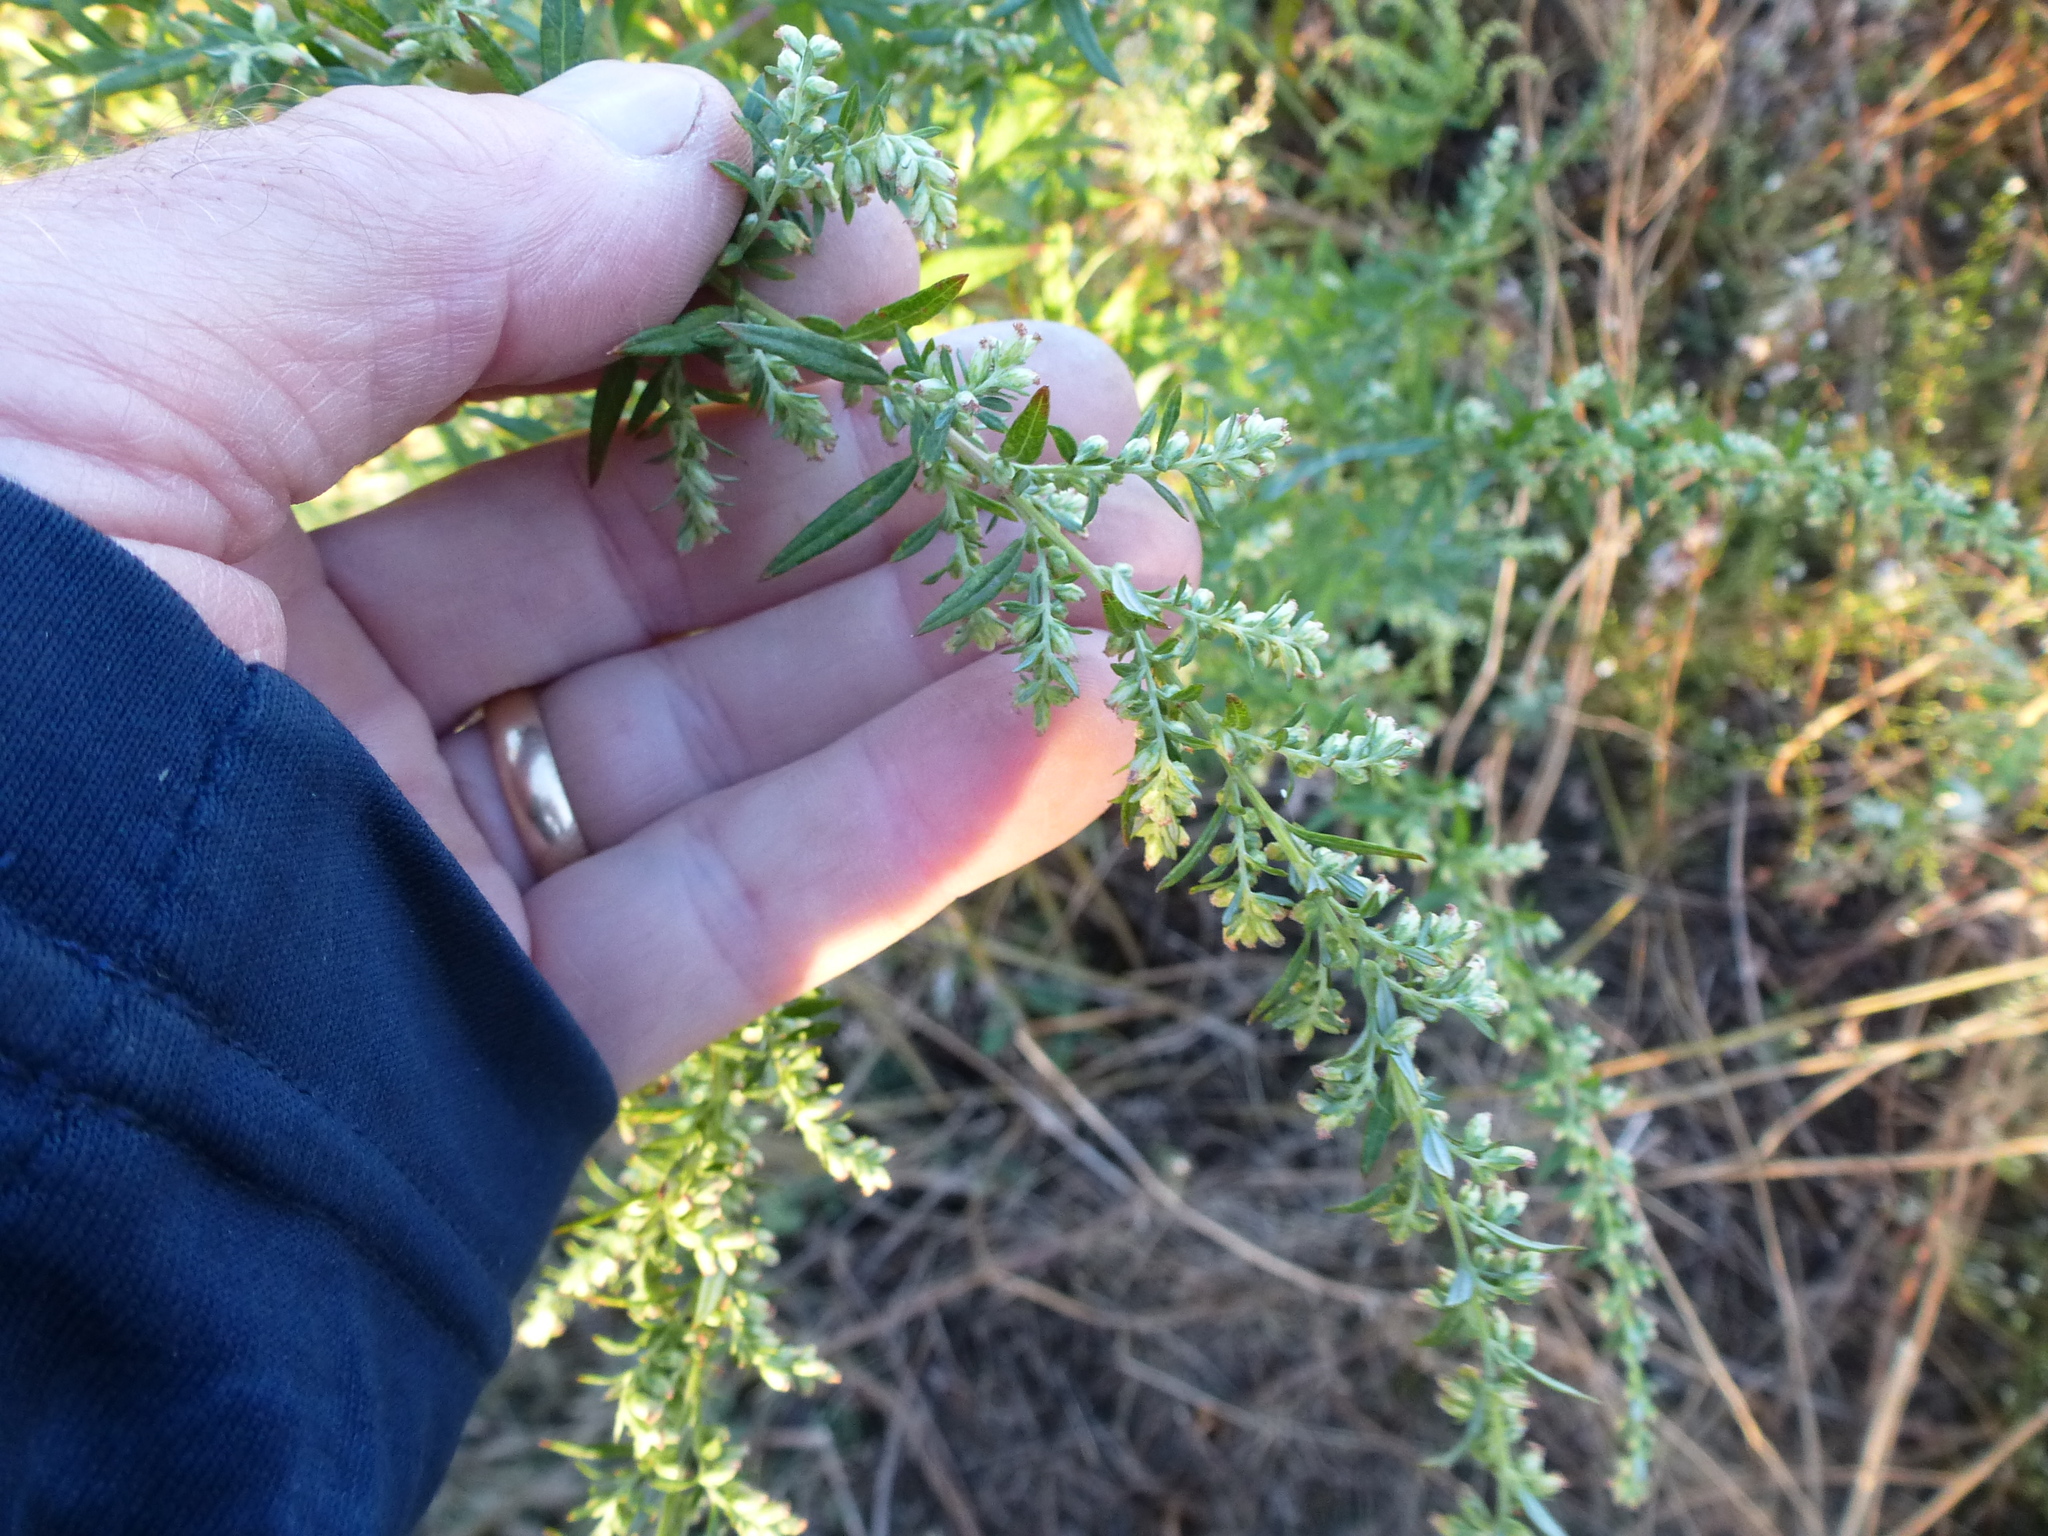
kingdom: Plantae
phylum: Tracheophyta
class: Magnoliopsida
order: Asterales
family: Asteraceae
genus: Artemisia
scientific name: Artemisia vulgaris
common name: Mugwort
